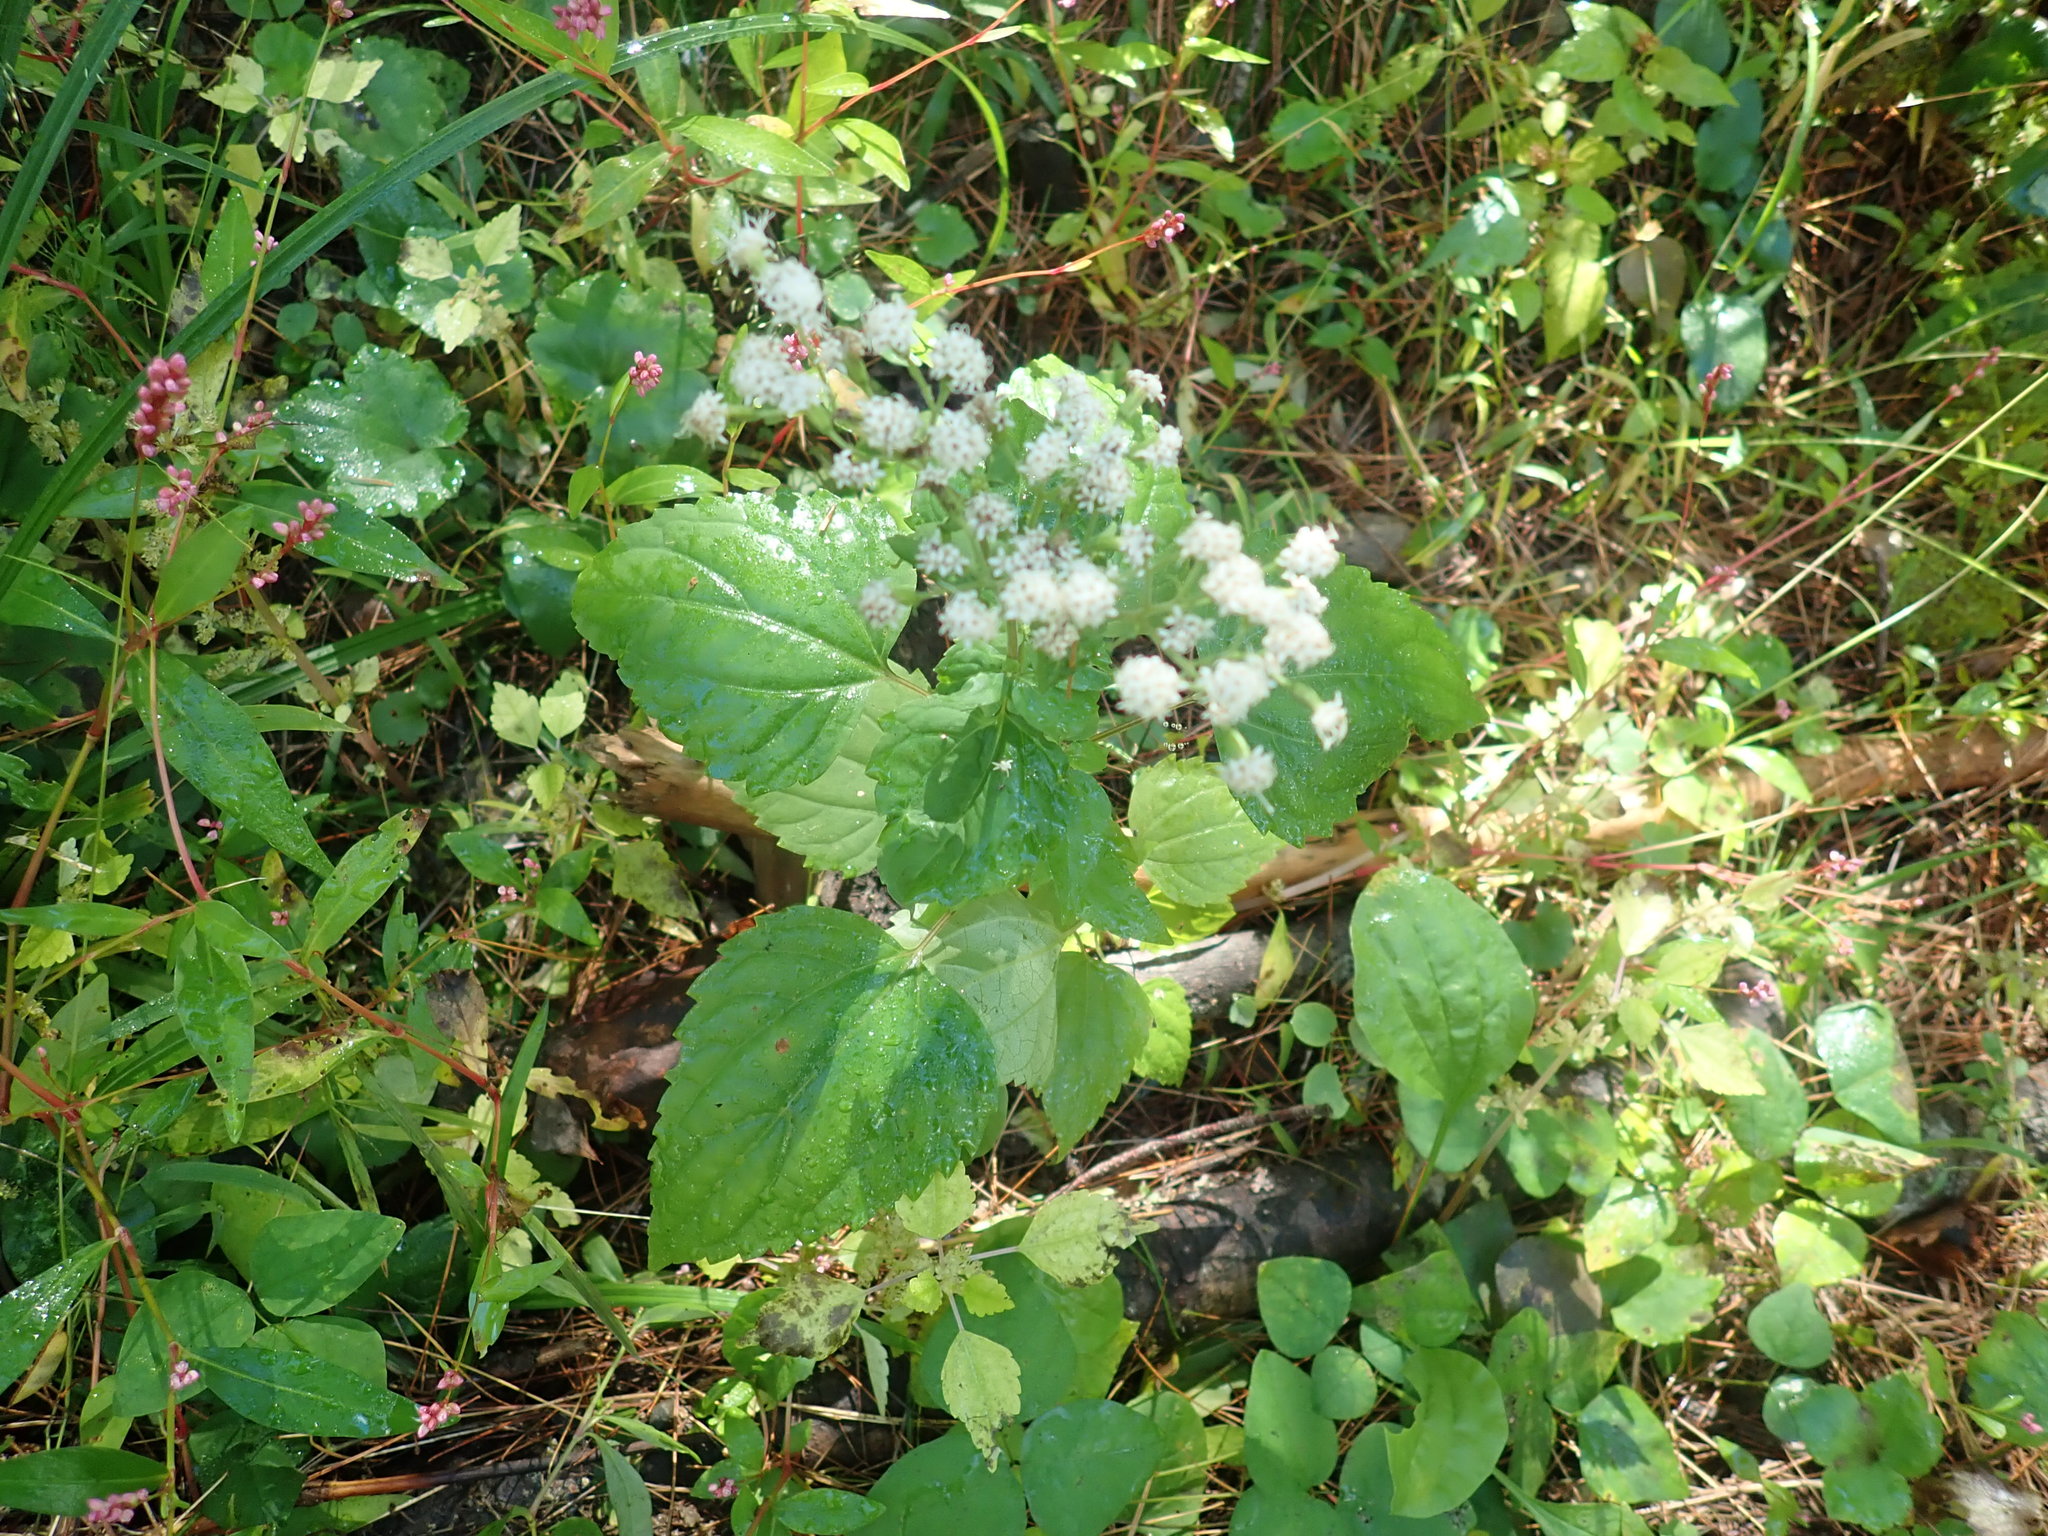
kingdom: Plantae
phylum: Tracheophyta
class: Magnoliopsida
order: Asterales
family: Asteraceae
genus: Ageratina
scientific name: Ageratina altissima
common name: White snakeroot
